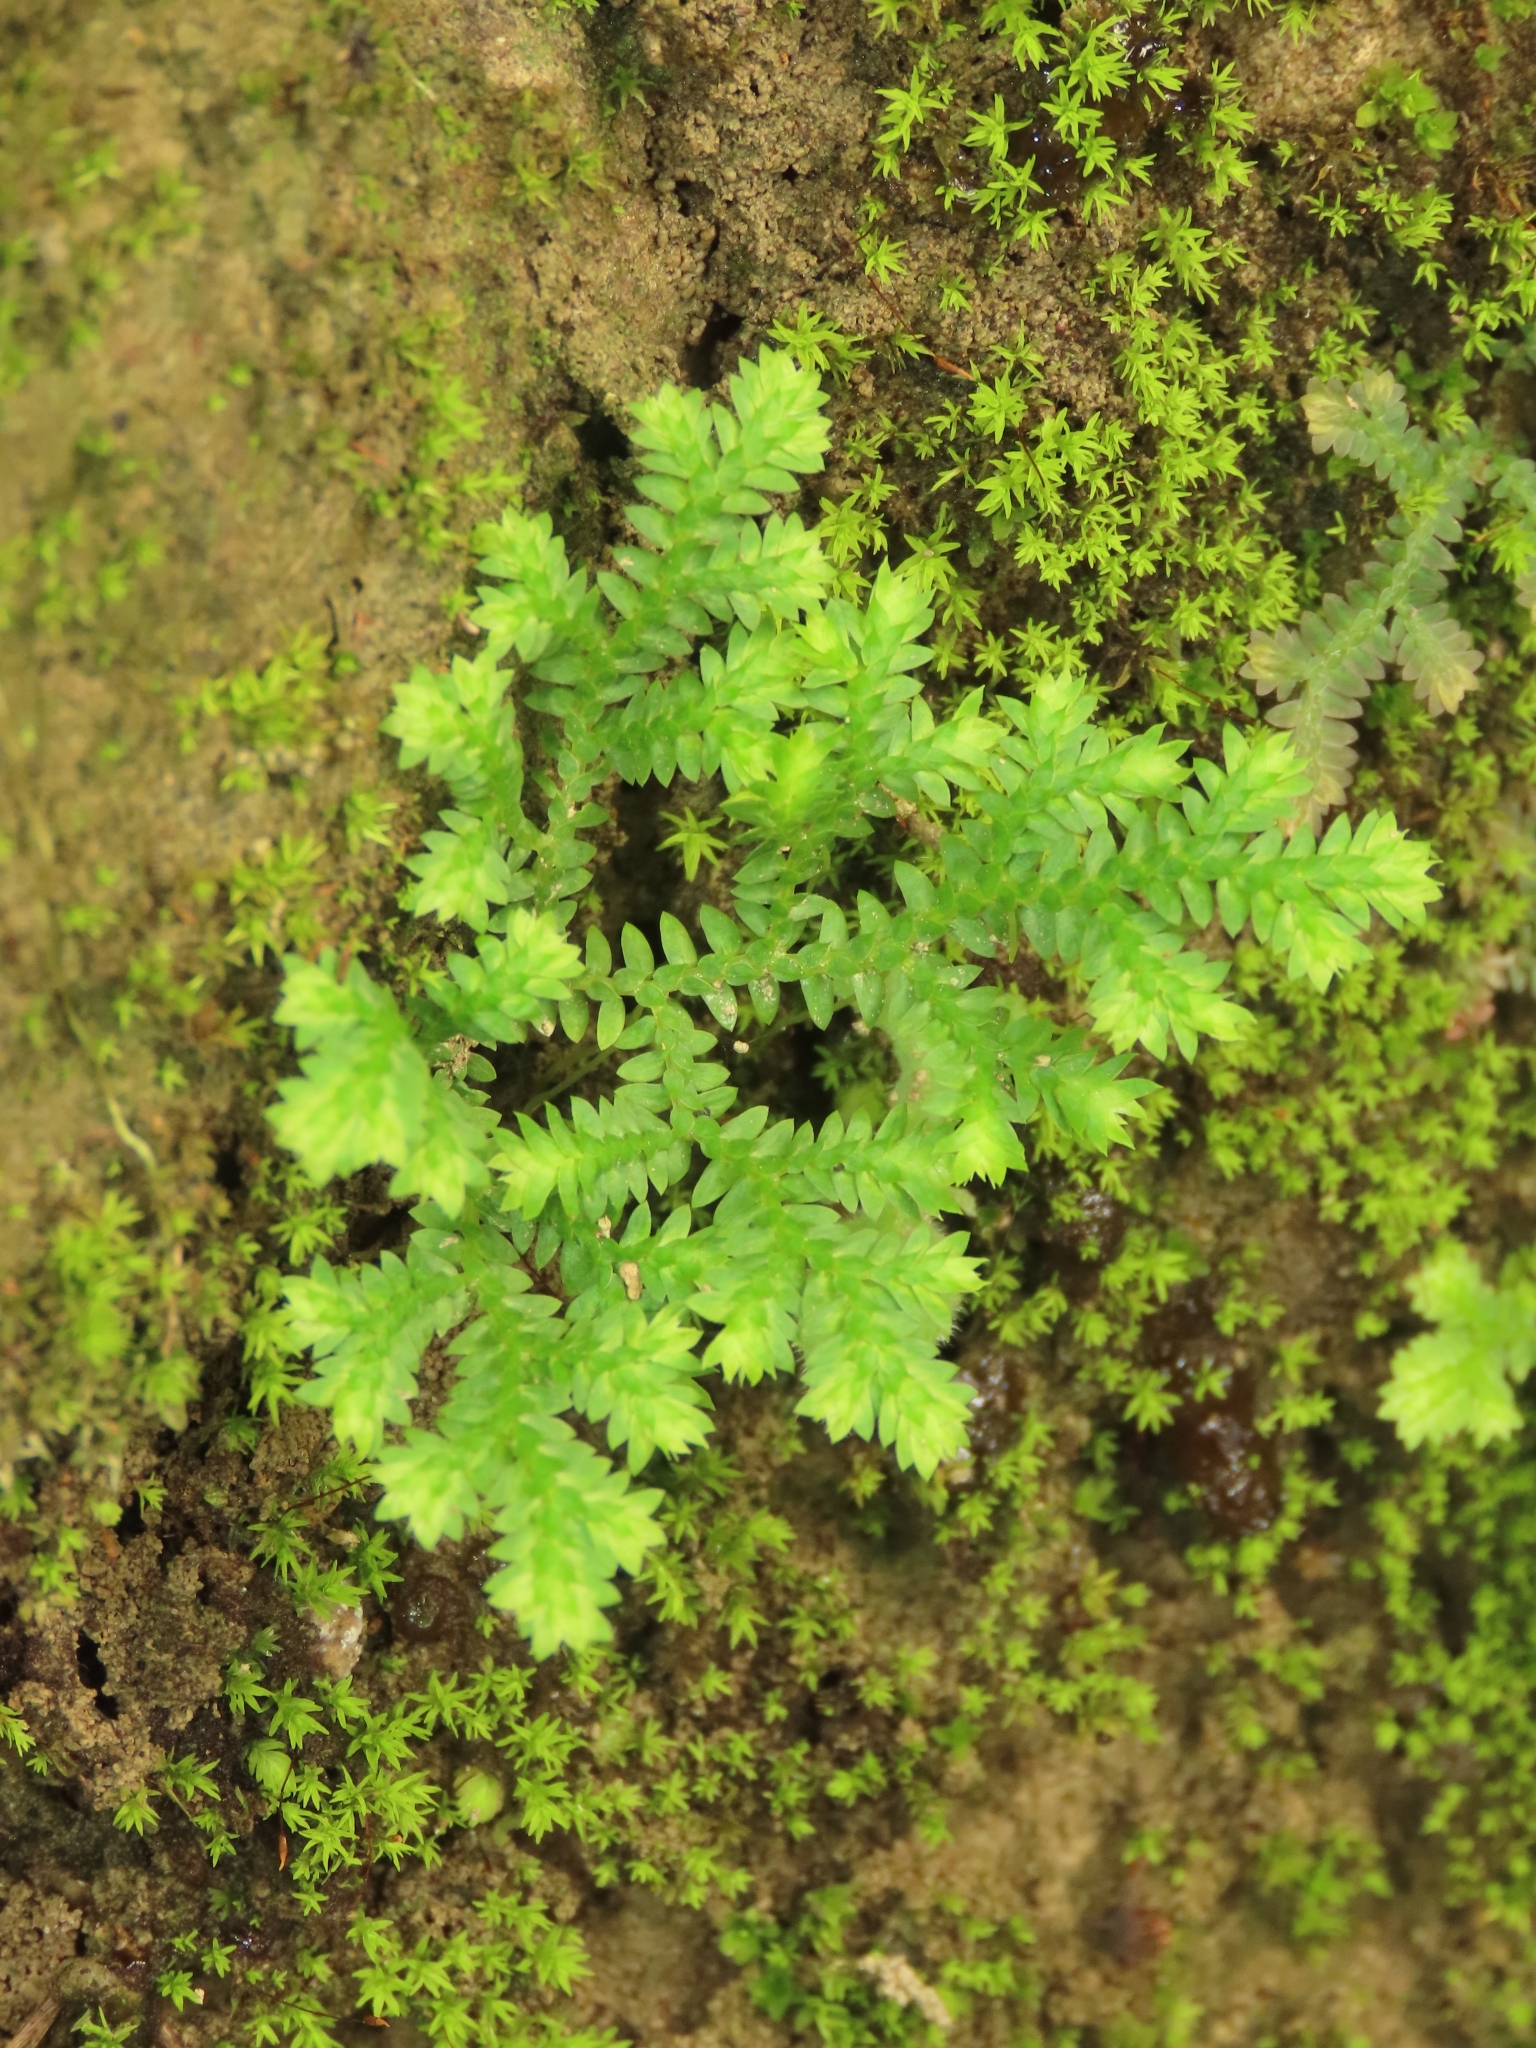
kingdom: Plantae
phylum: Tracheophyta
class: Lycopodiopsida
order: Selaginellales
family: Selaginellaceae
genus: Selaginella
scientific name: Selaginella ciliaris
